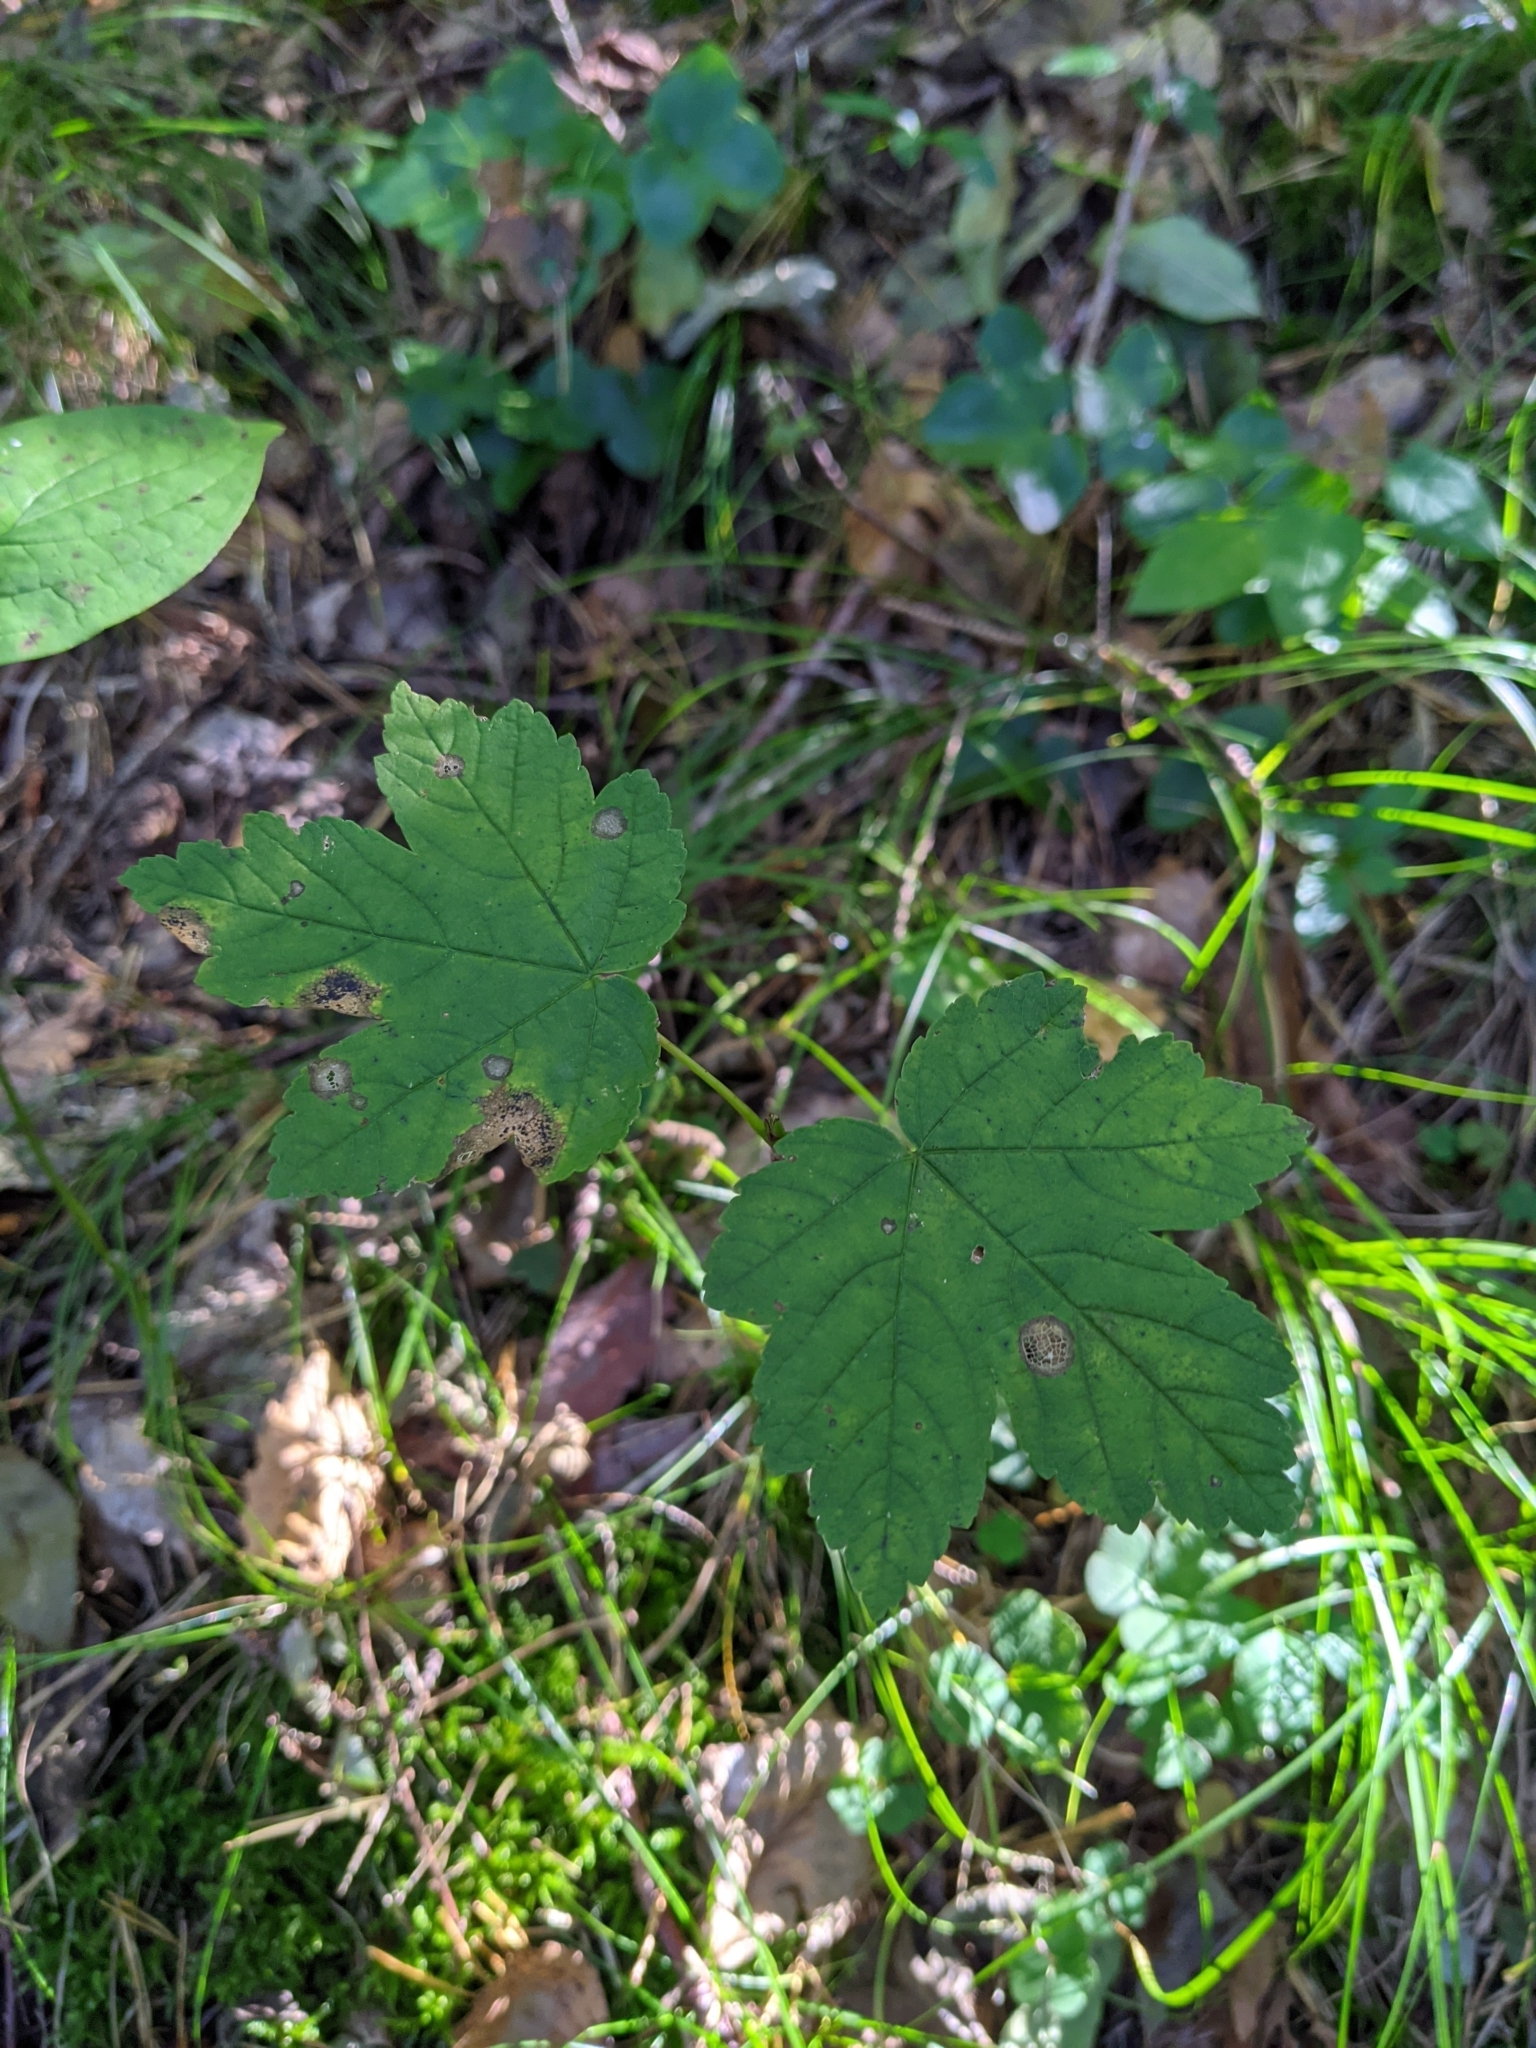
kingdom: Plantae
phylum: Tracheophyta
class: Magnoliopsida
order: Sapindales
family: Sapindaceae
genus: Acer
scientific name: Acer pseudoplatanus
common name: Sycamore
